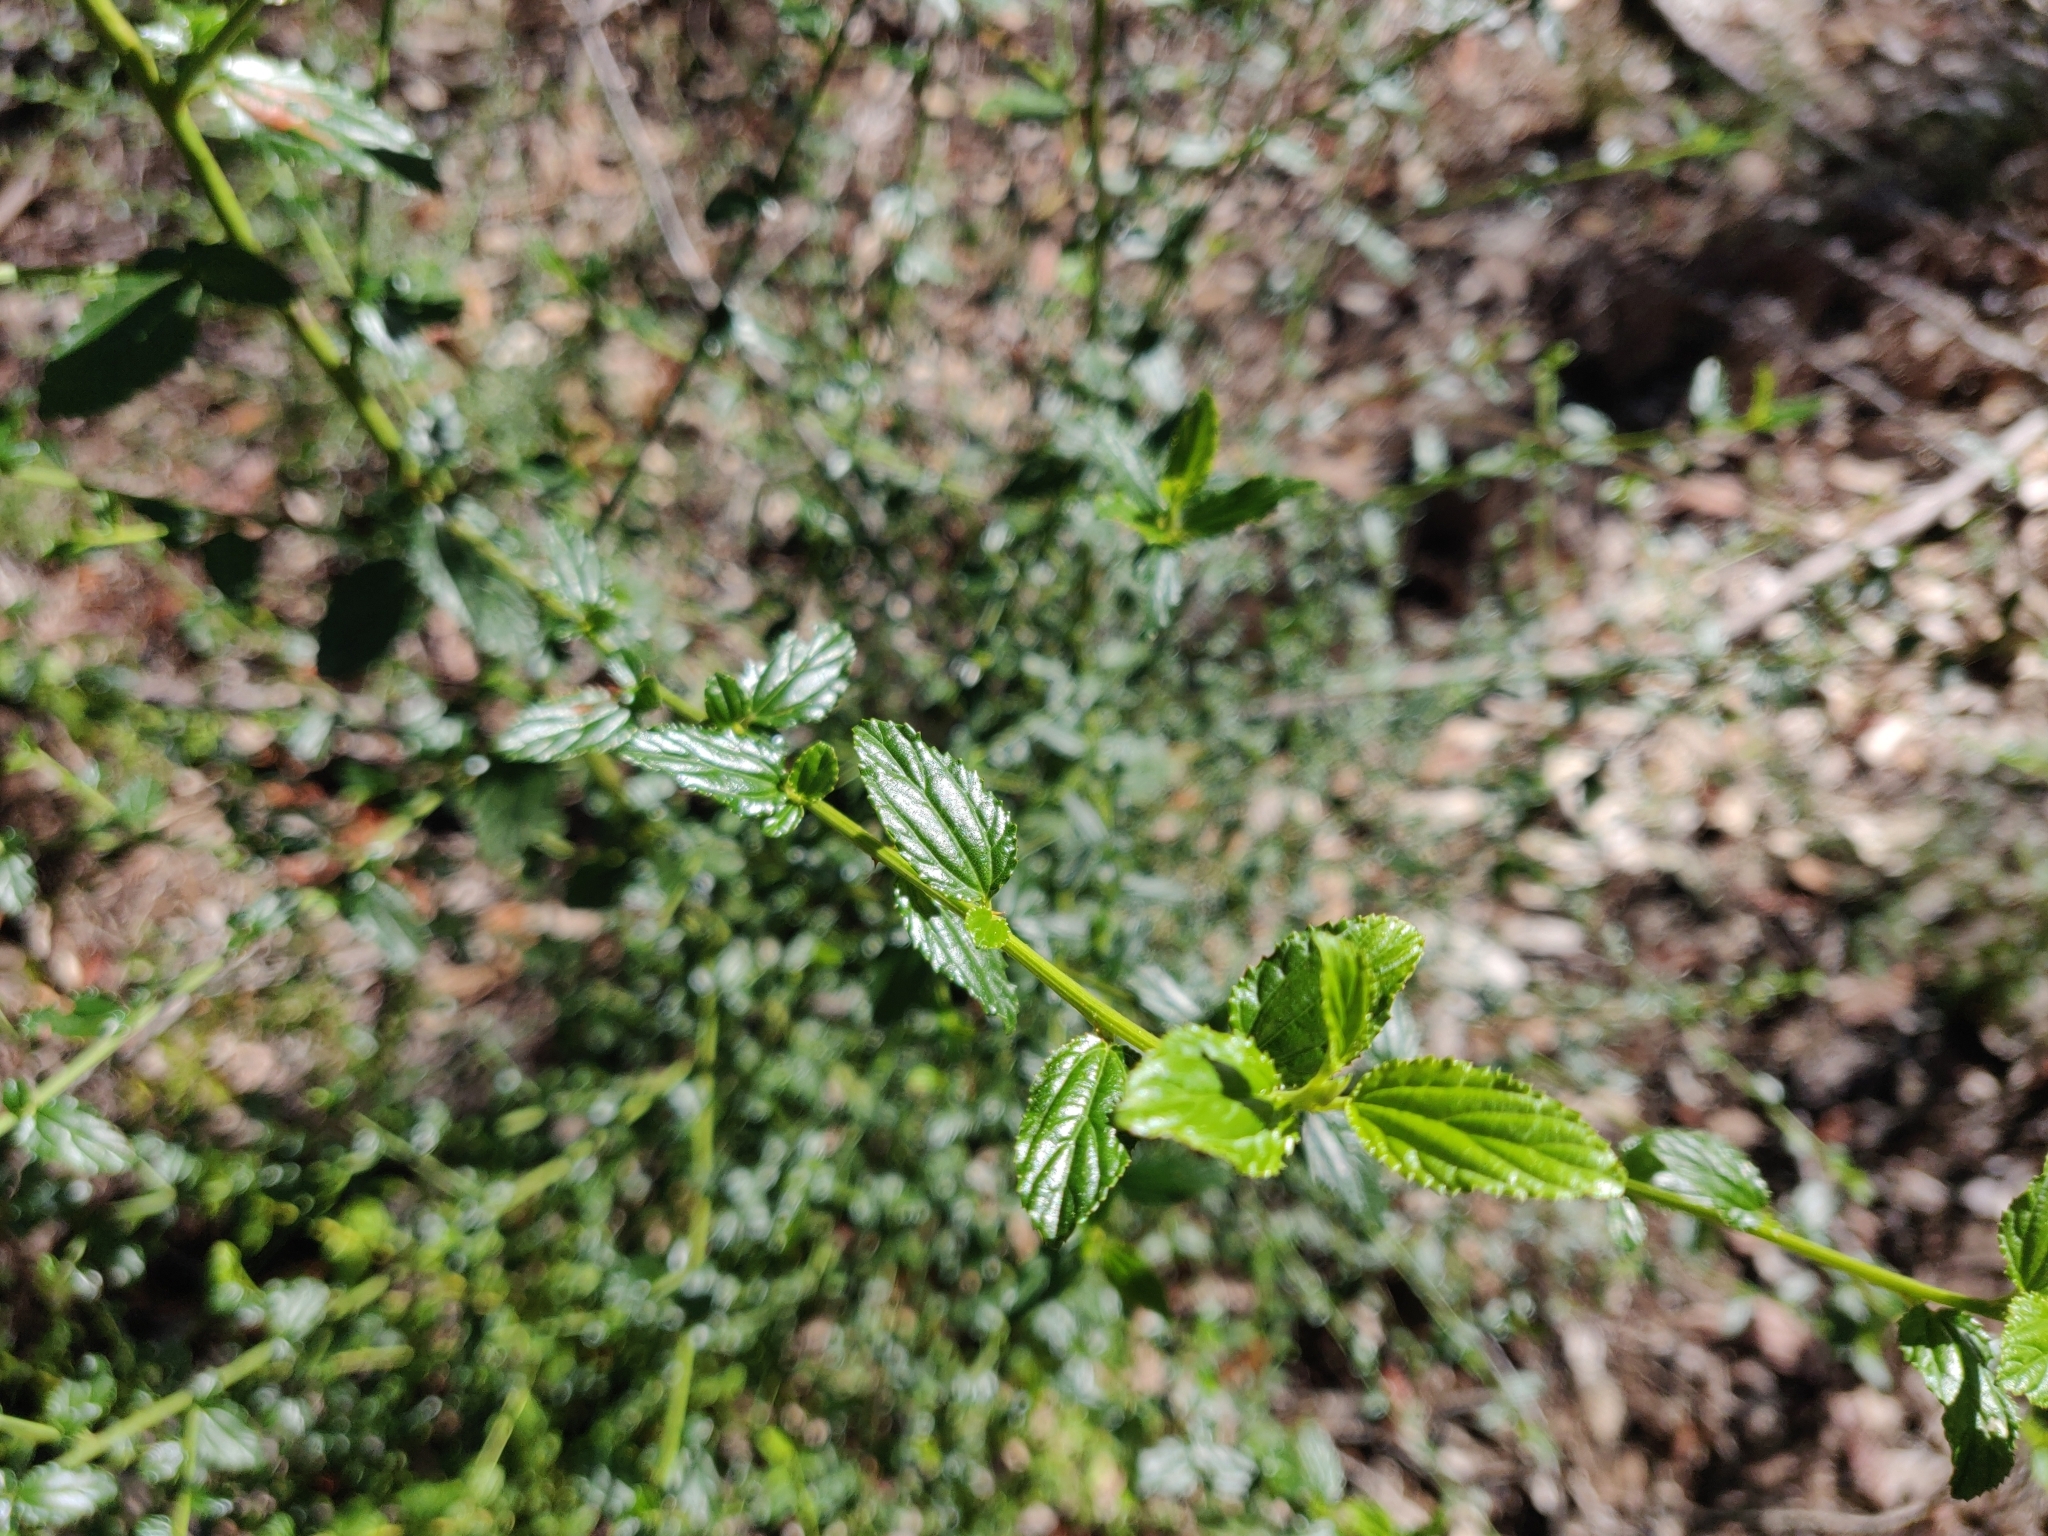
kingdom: Plantae
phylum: Tracheophyta
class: Magnoliopsida
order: Rosales
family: Rhamnaceae
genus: Ceanothus
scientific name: Ceanothus thyrsiflorus
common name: California-lilac
